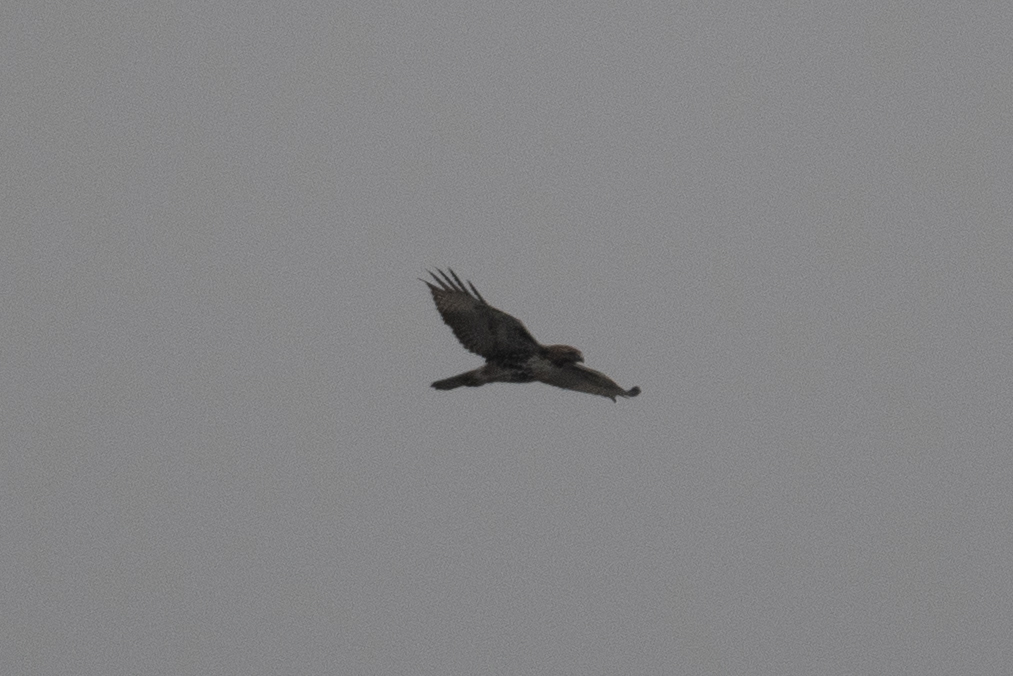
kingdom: Animalia
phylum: Chordata
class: Aves
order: Accipitriformes
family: Accipitridae
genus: Buteo
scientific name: Buteo jamaicensis
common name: Red-tailed hawk
